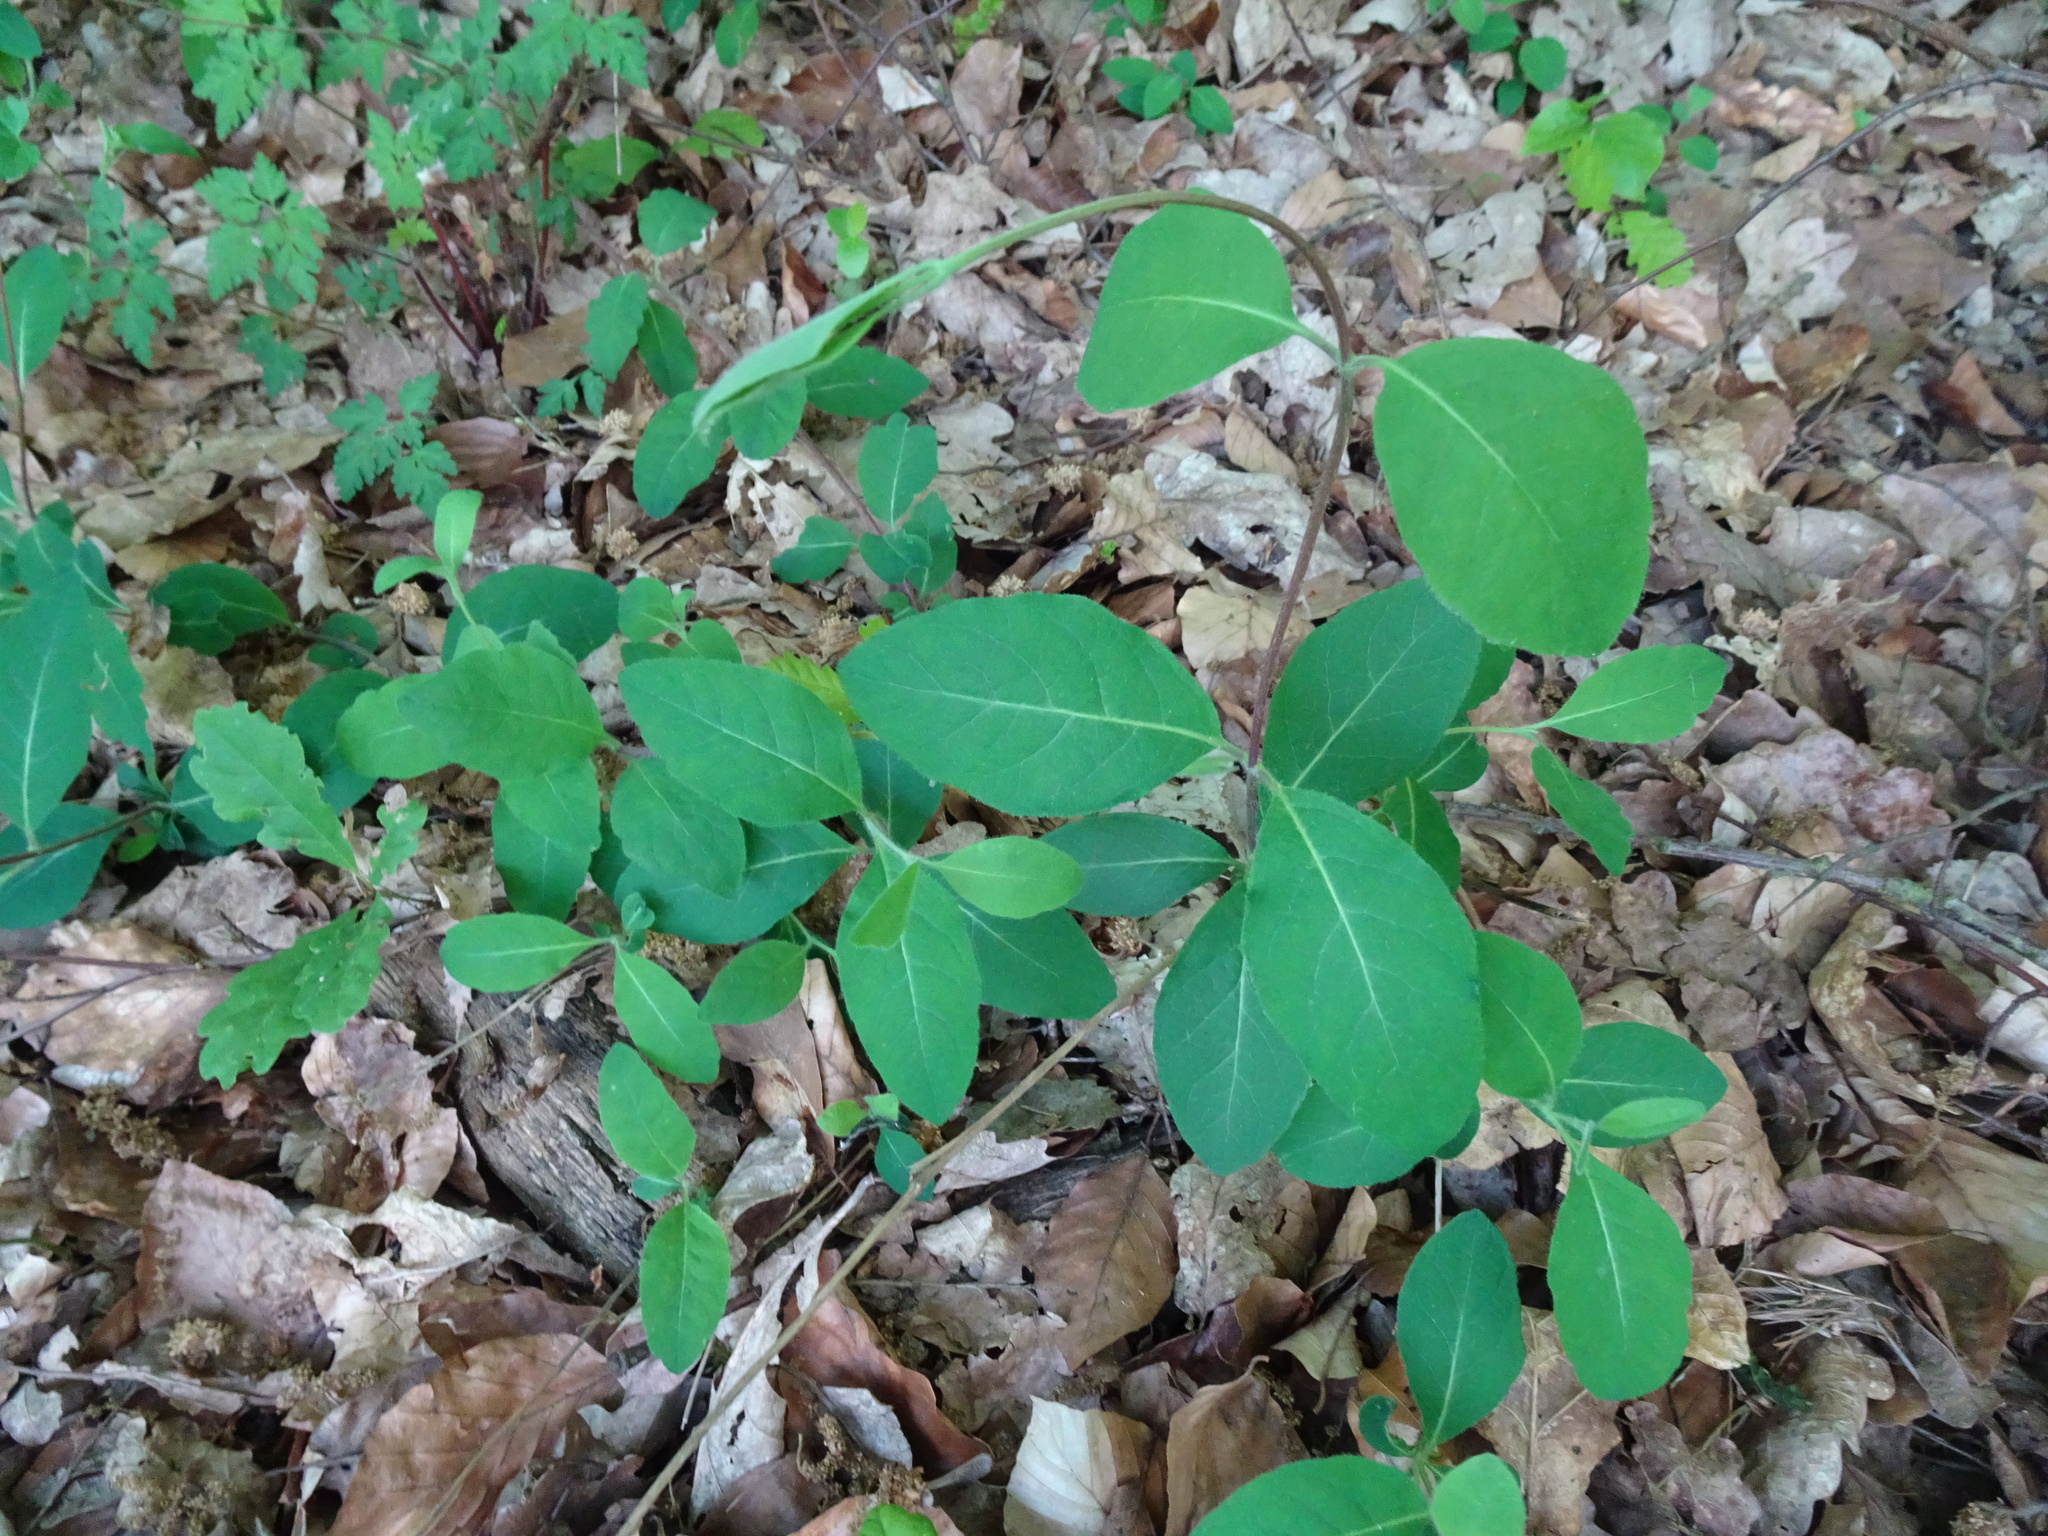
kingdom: Plantae
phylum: Tracheophyta
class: Magnoliopsida
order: Dipsacales
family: Caprifoliaceae
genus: Lonicera
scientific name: Lonicera periclymenum
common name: European honeysuckle
